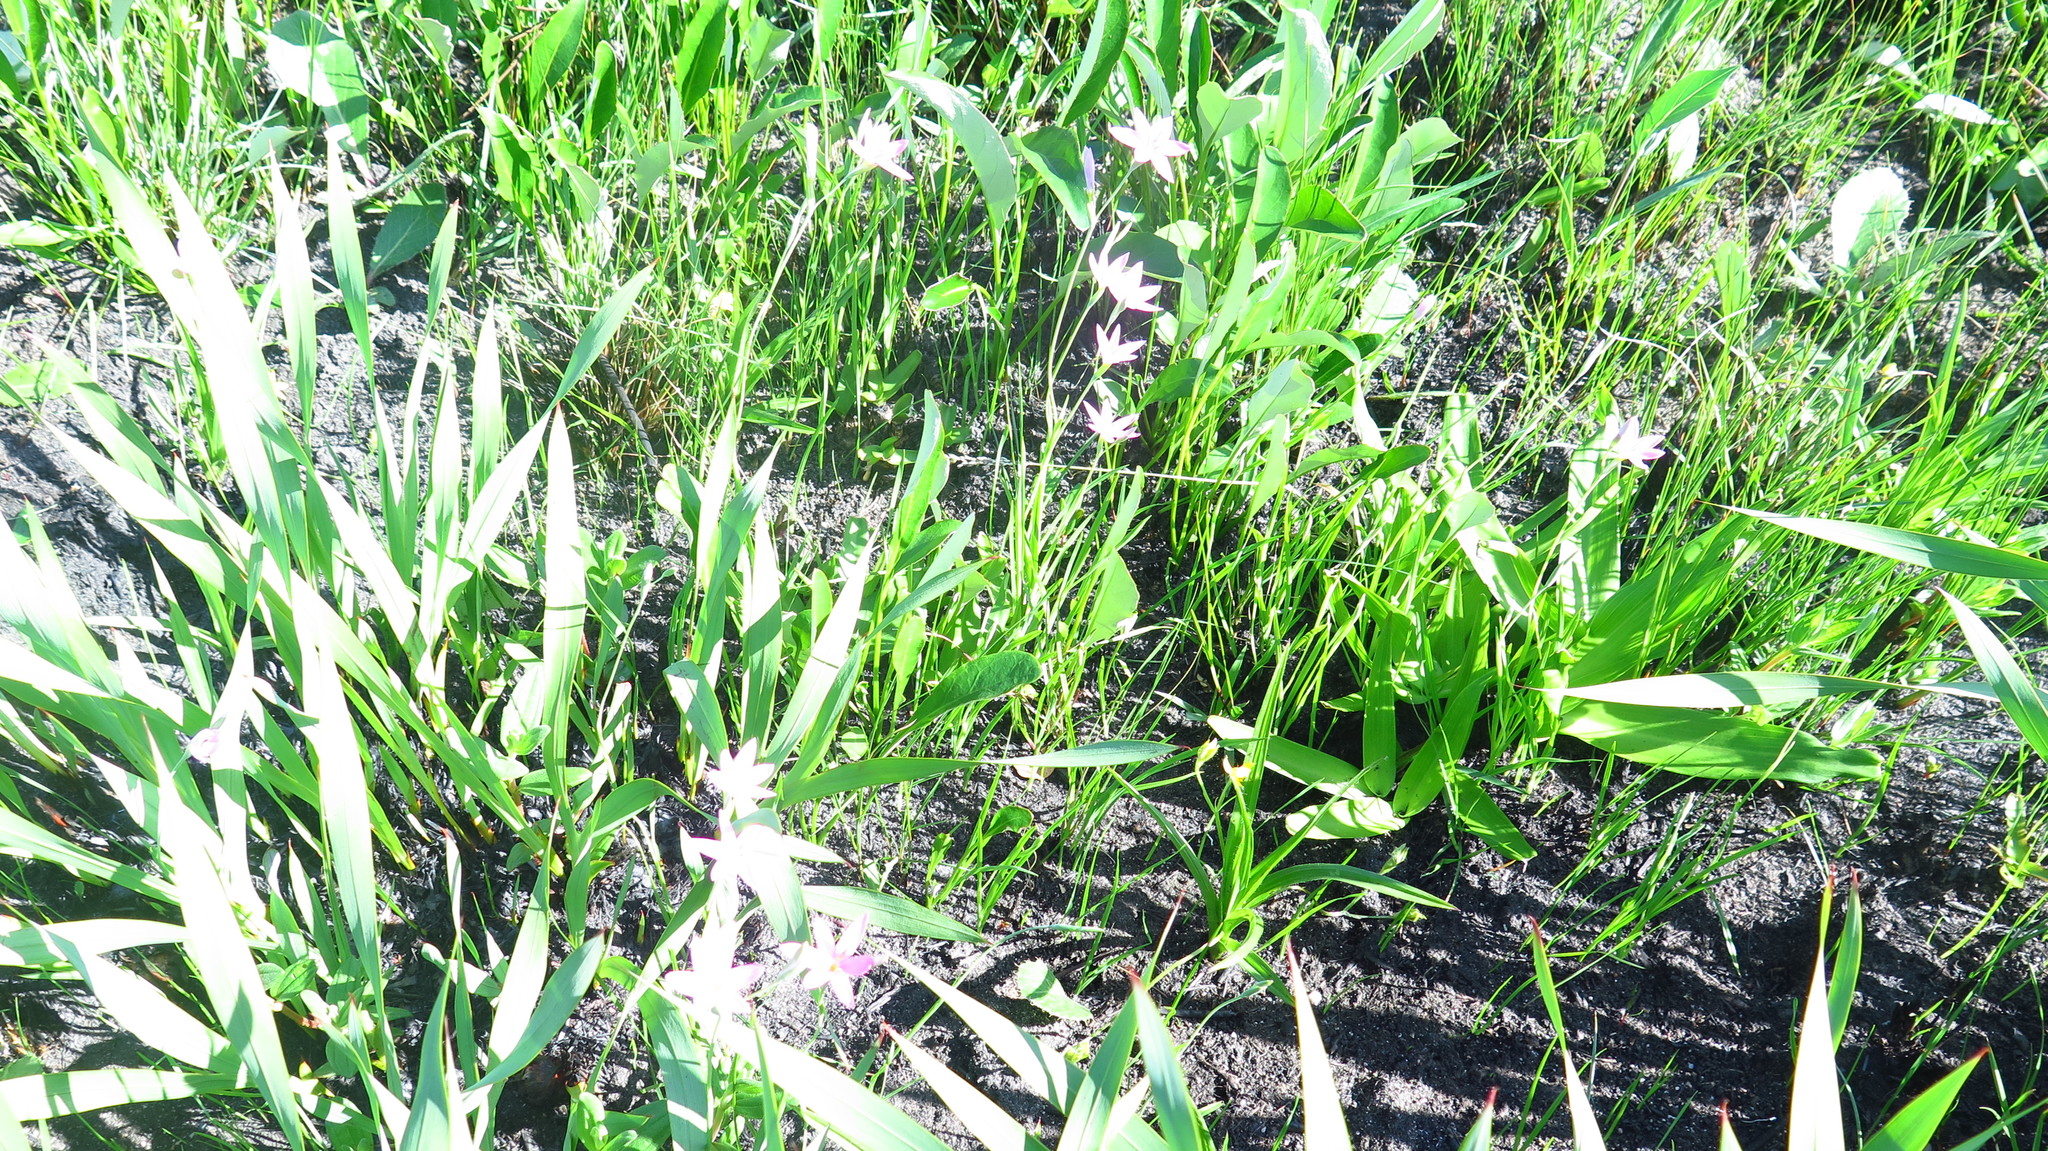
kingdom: Plantae
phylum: Tracheophyta
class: Liliopsida
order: Liliales
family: Colchicaceae
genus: Wurmbea
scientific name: Wurmbea kraussii
